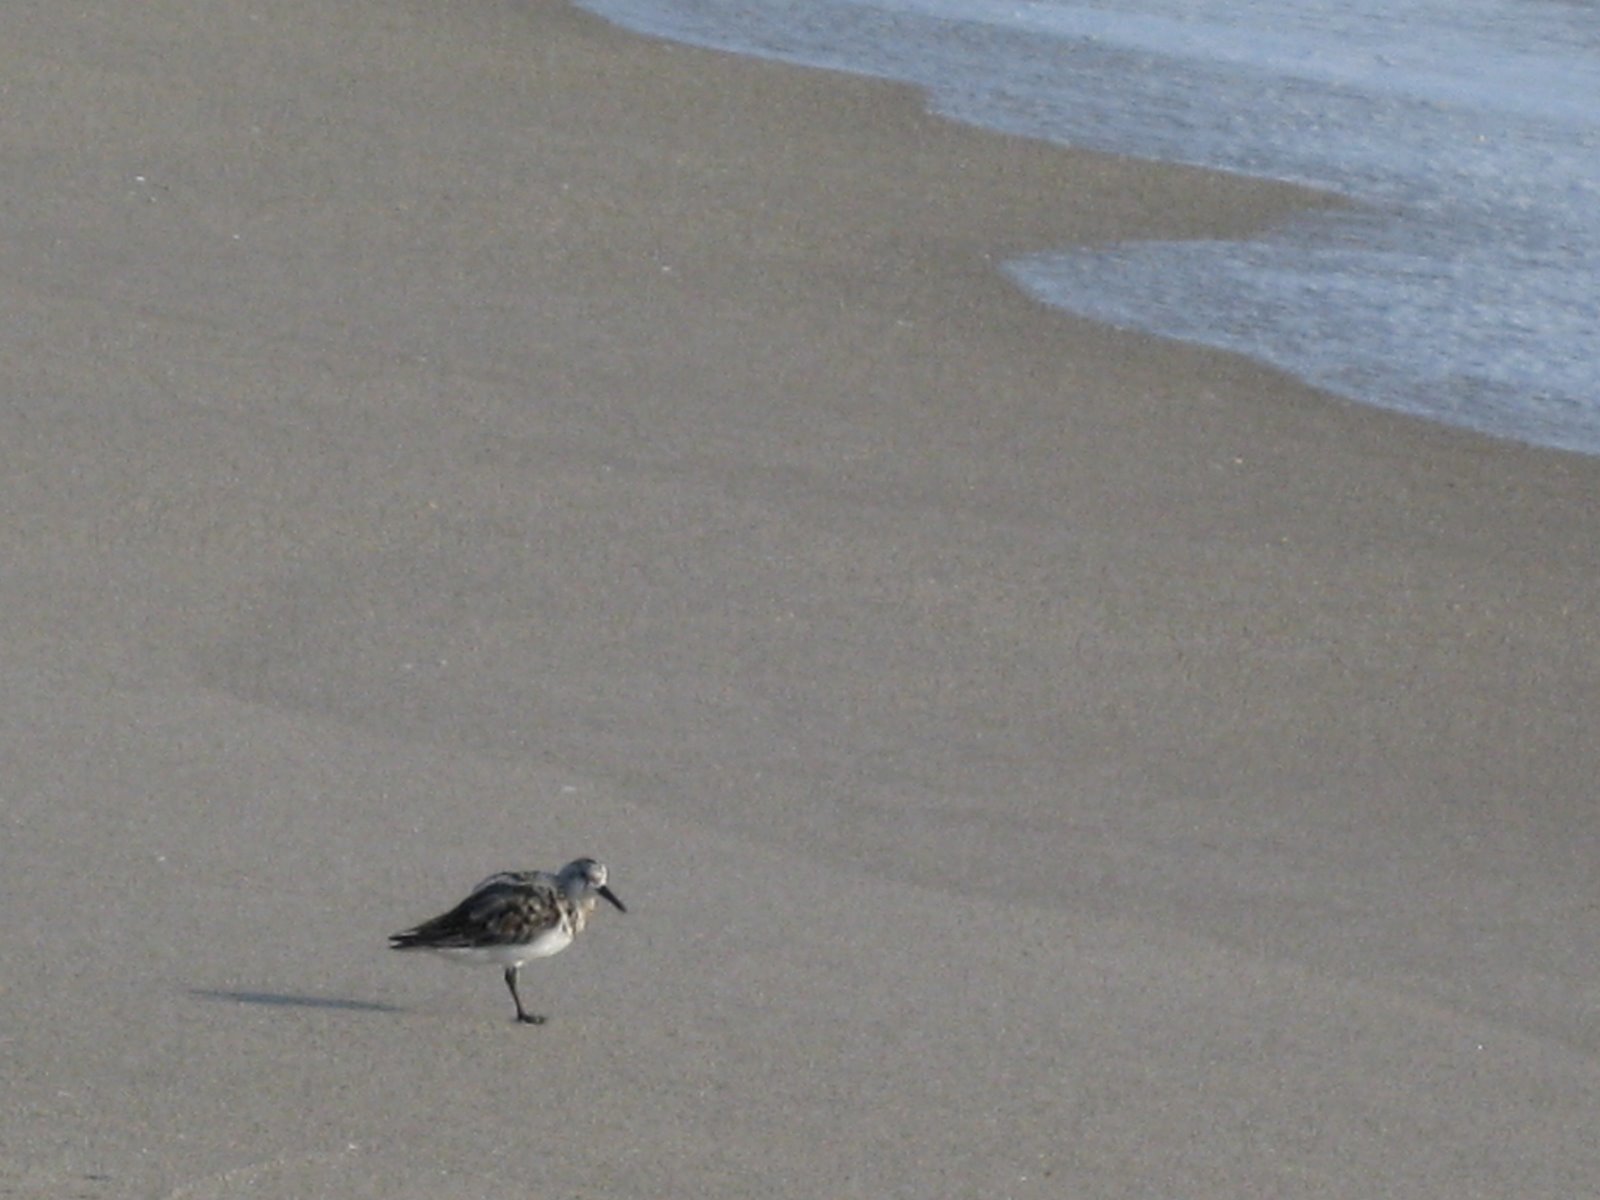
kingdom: Animalia
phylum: Chordata
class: Aves
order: Charadriiformes
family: Scolopacidae
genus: Calidris
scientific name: Calidris alba
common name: Sanderling
